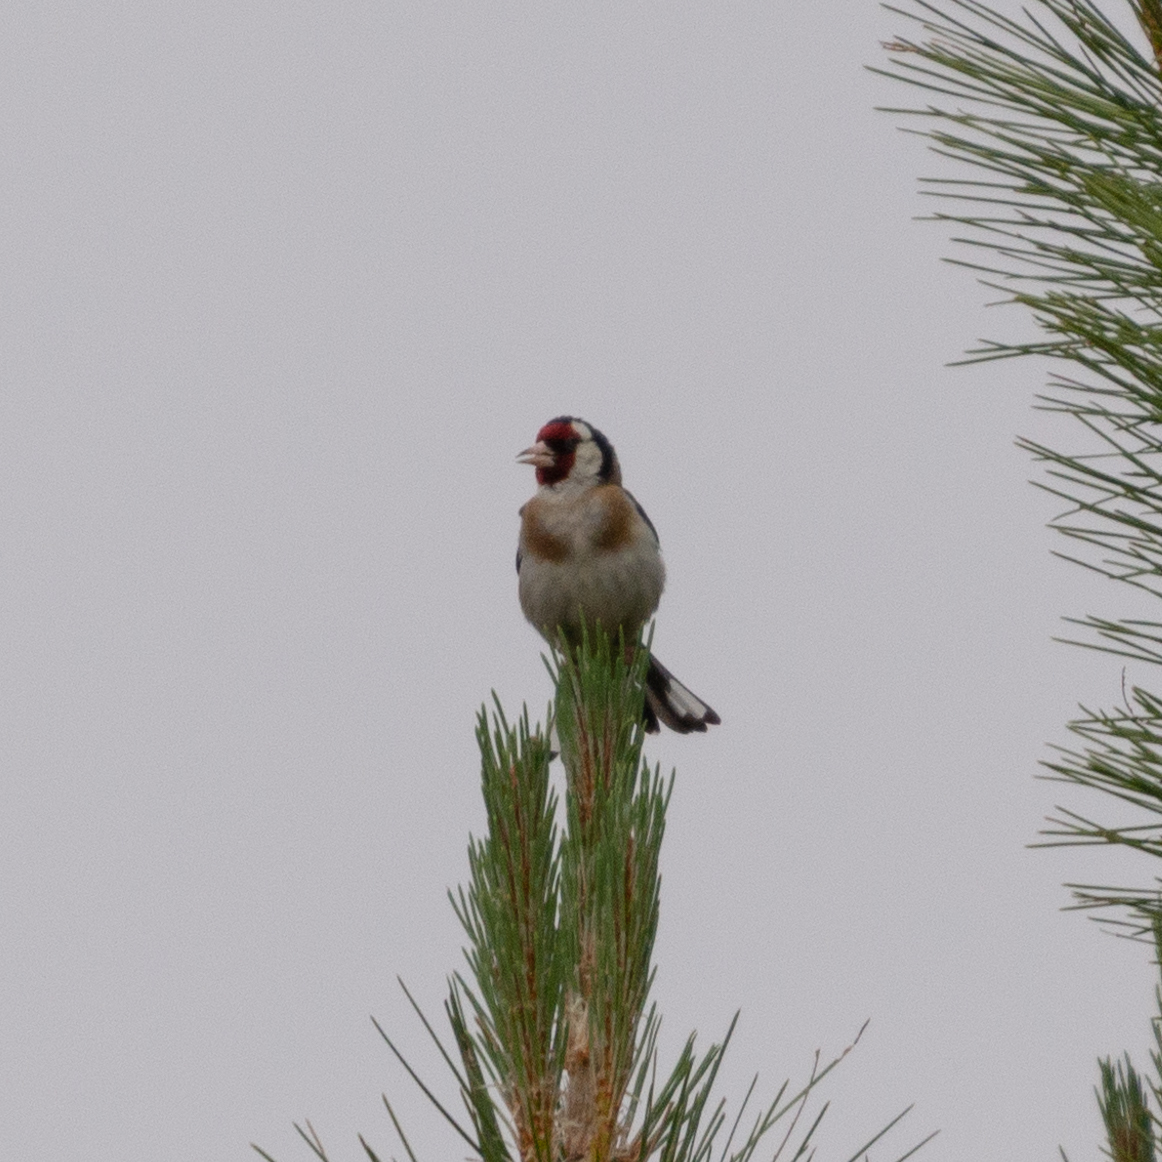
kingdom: Animalia
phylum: Chordata
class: Aves
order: Passeriformes
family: Fringillidae
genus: Carduelis
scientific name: Carduelis carduelis
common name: European goldfinch
